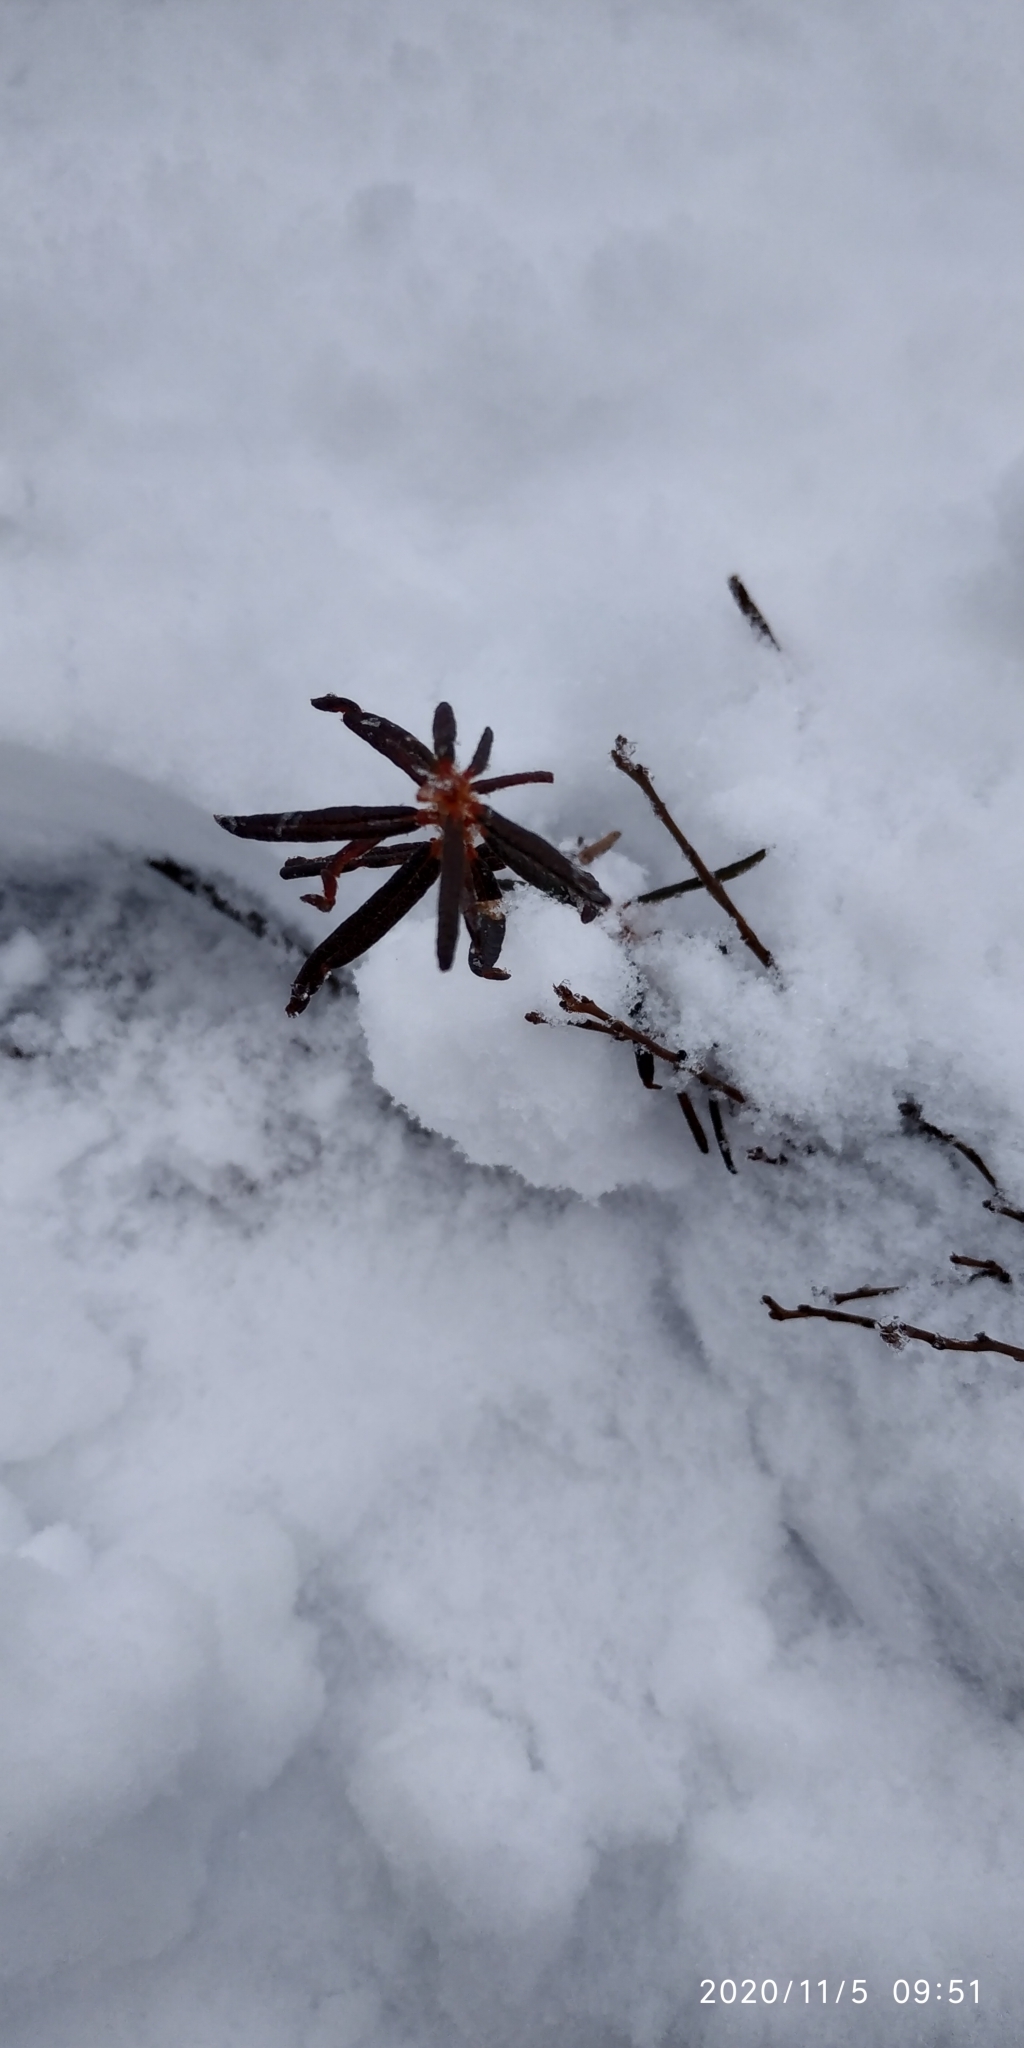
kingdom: Plantae
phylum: Tracheophyta
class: Magnoliopsida
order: Ericales
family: Ericaceae
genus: Rhododendron
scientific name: Rhododendron tomentosum
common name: Marsh labrador tea
